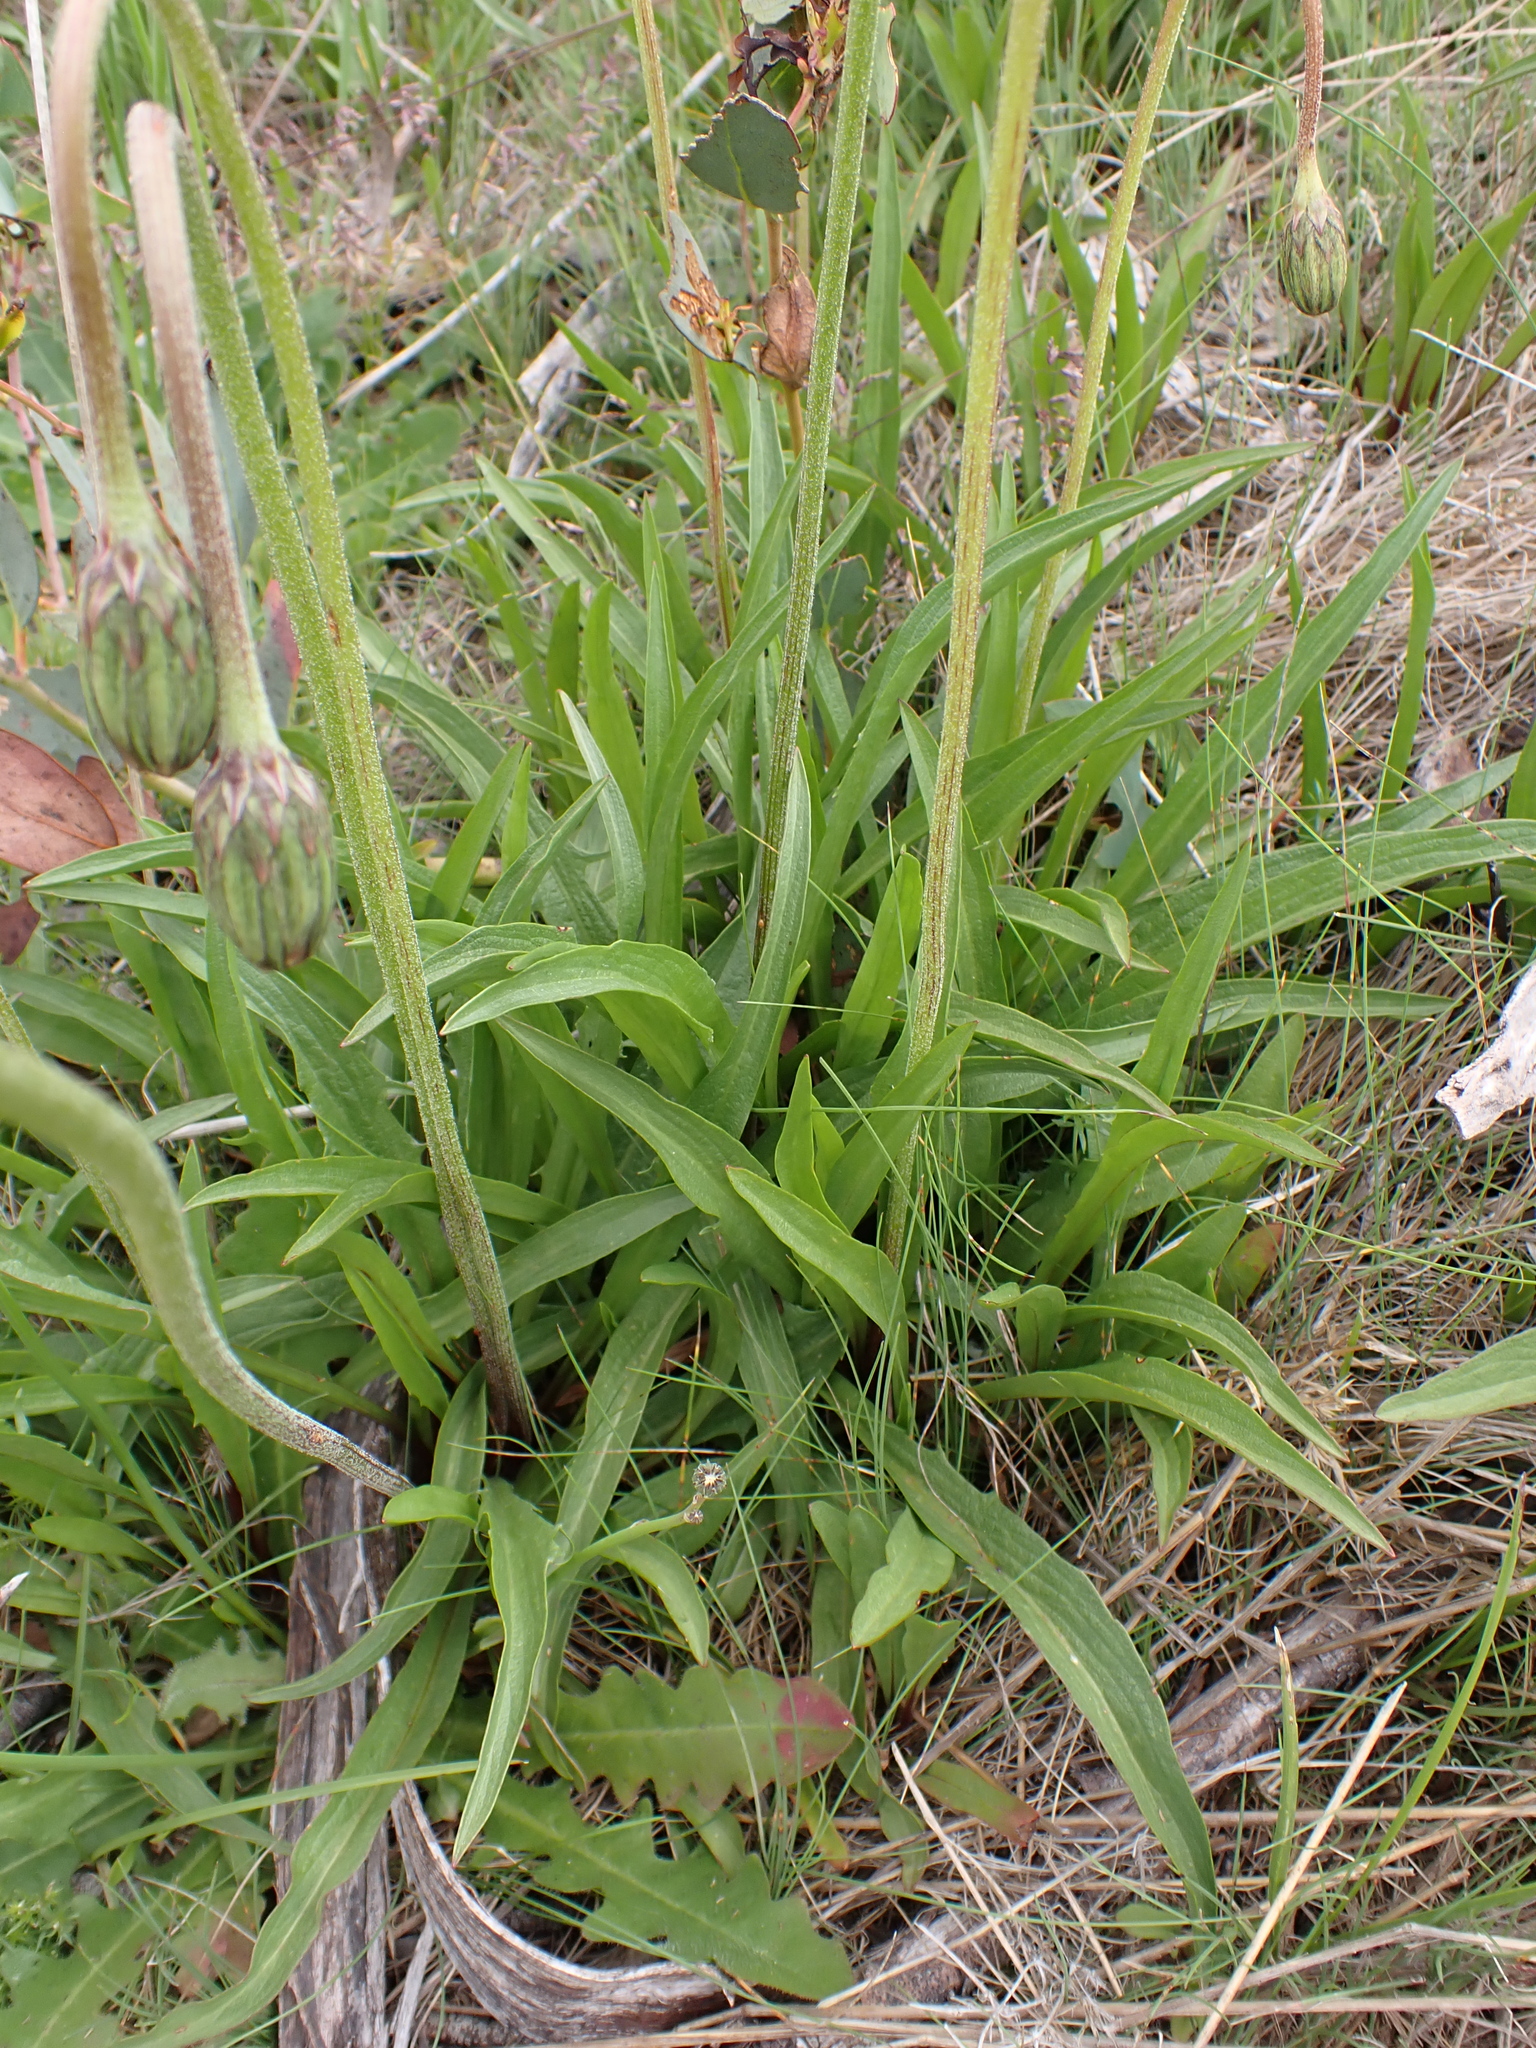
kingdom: Plantae
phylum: Tracheophyta
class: Magnoliopsida
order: Asterales
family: Asteraceae
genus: Microseris
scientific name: Microseris lanceolata
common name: Yam daisy
